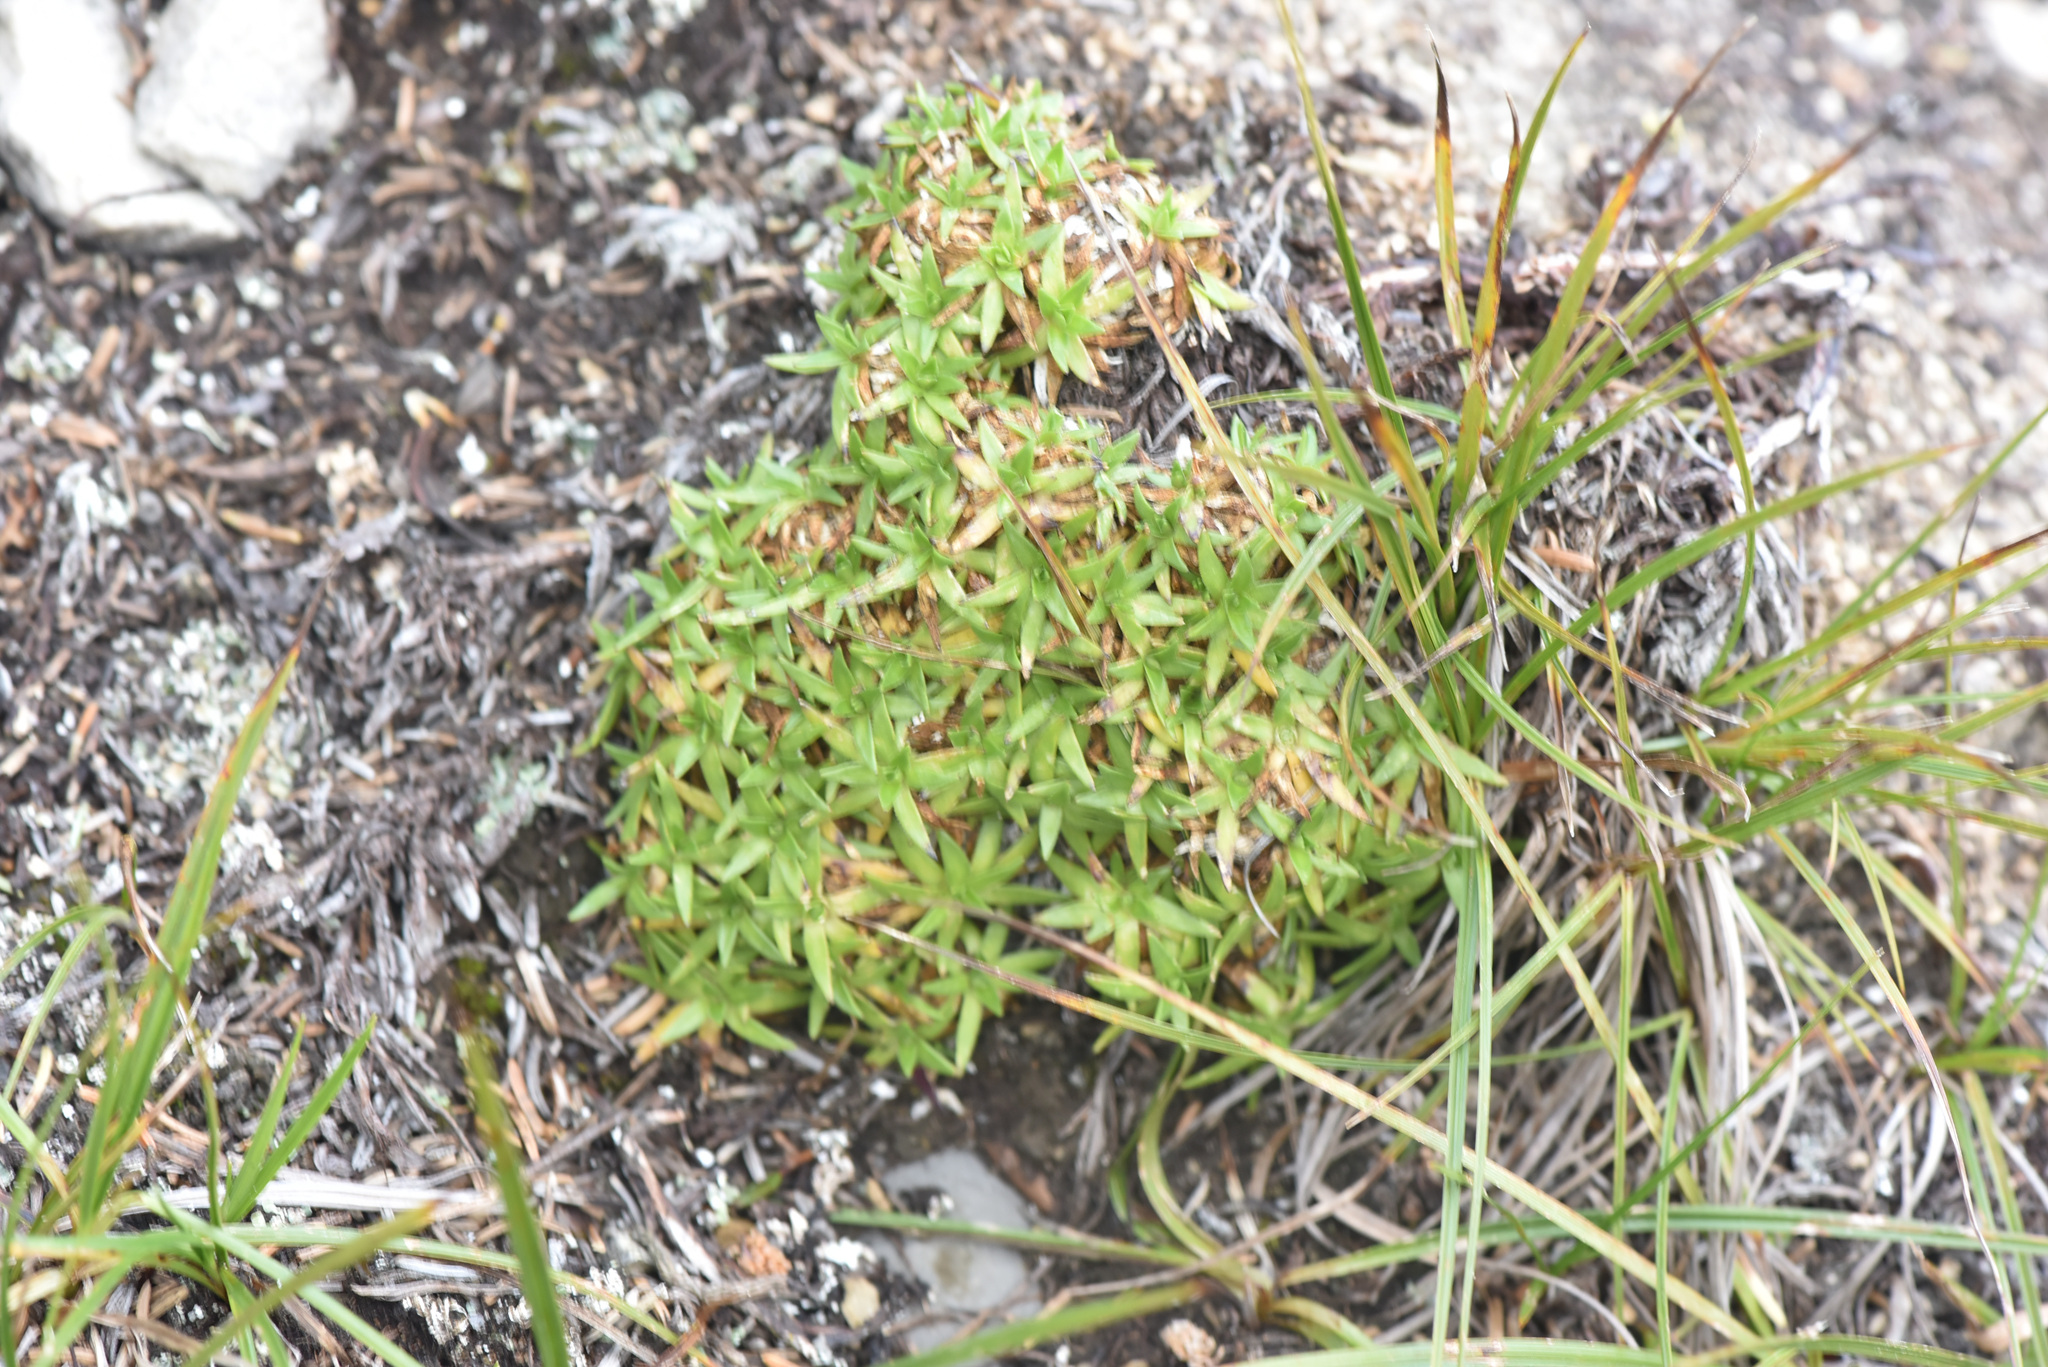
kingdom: Plantae
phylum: Tracheophyta
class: Magnoliopsida
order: Caryophyllales
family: Caryophyllaceae
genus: Silene
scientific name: Silene acaulis
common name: Moss campion
